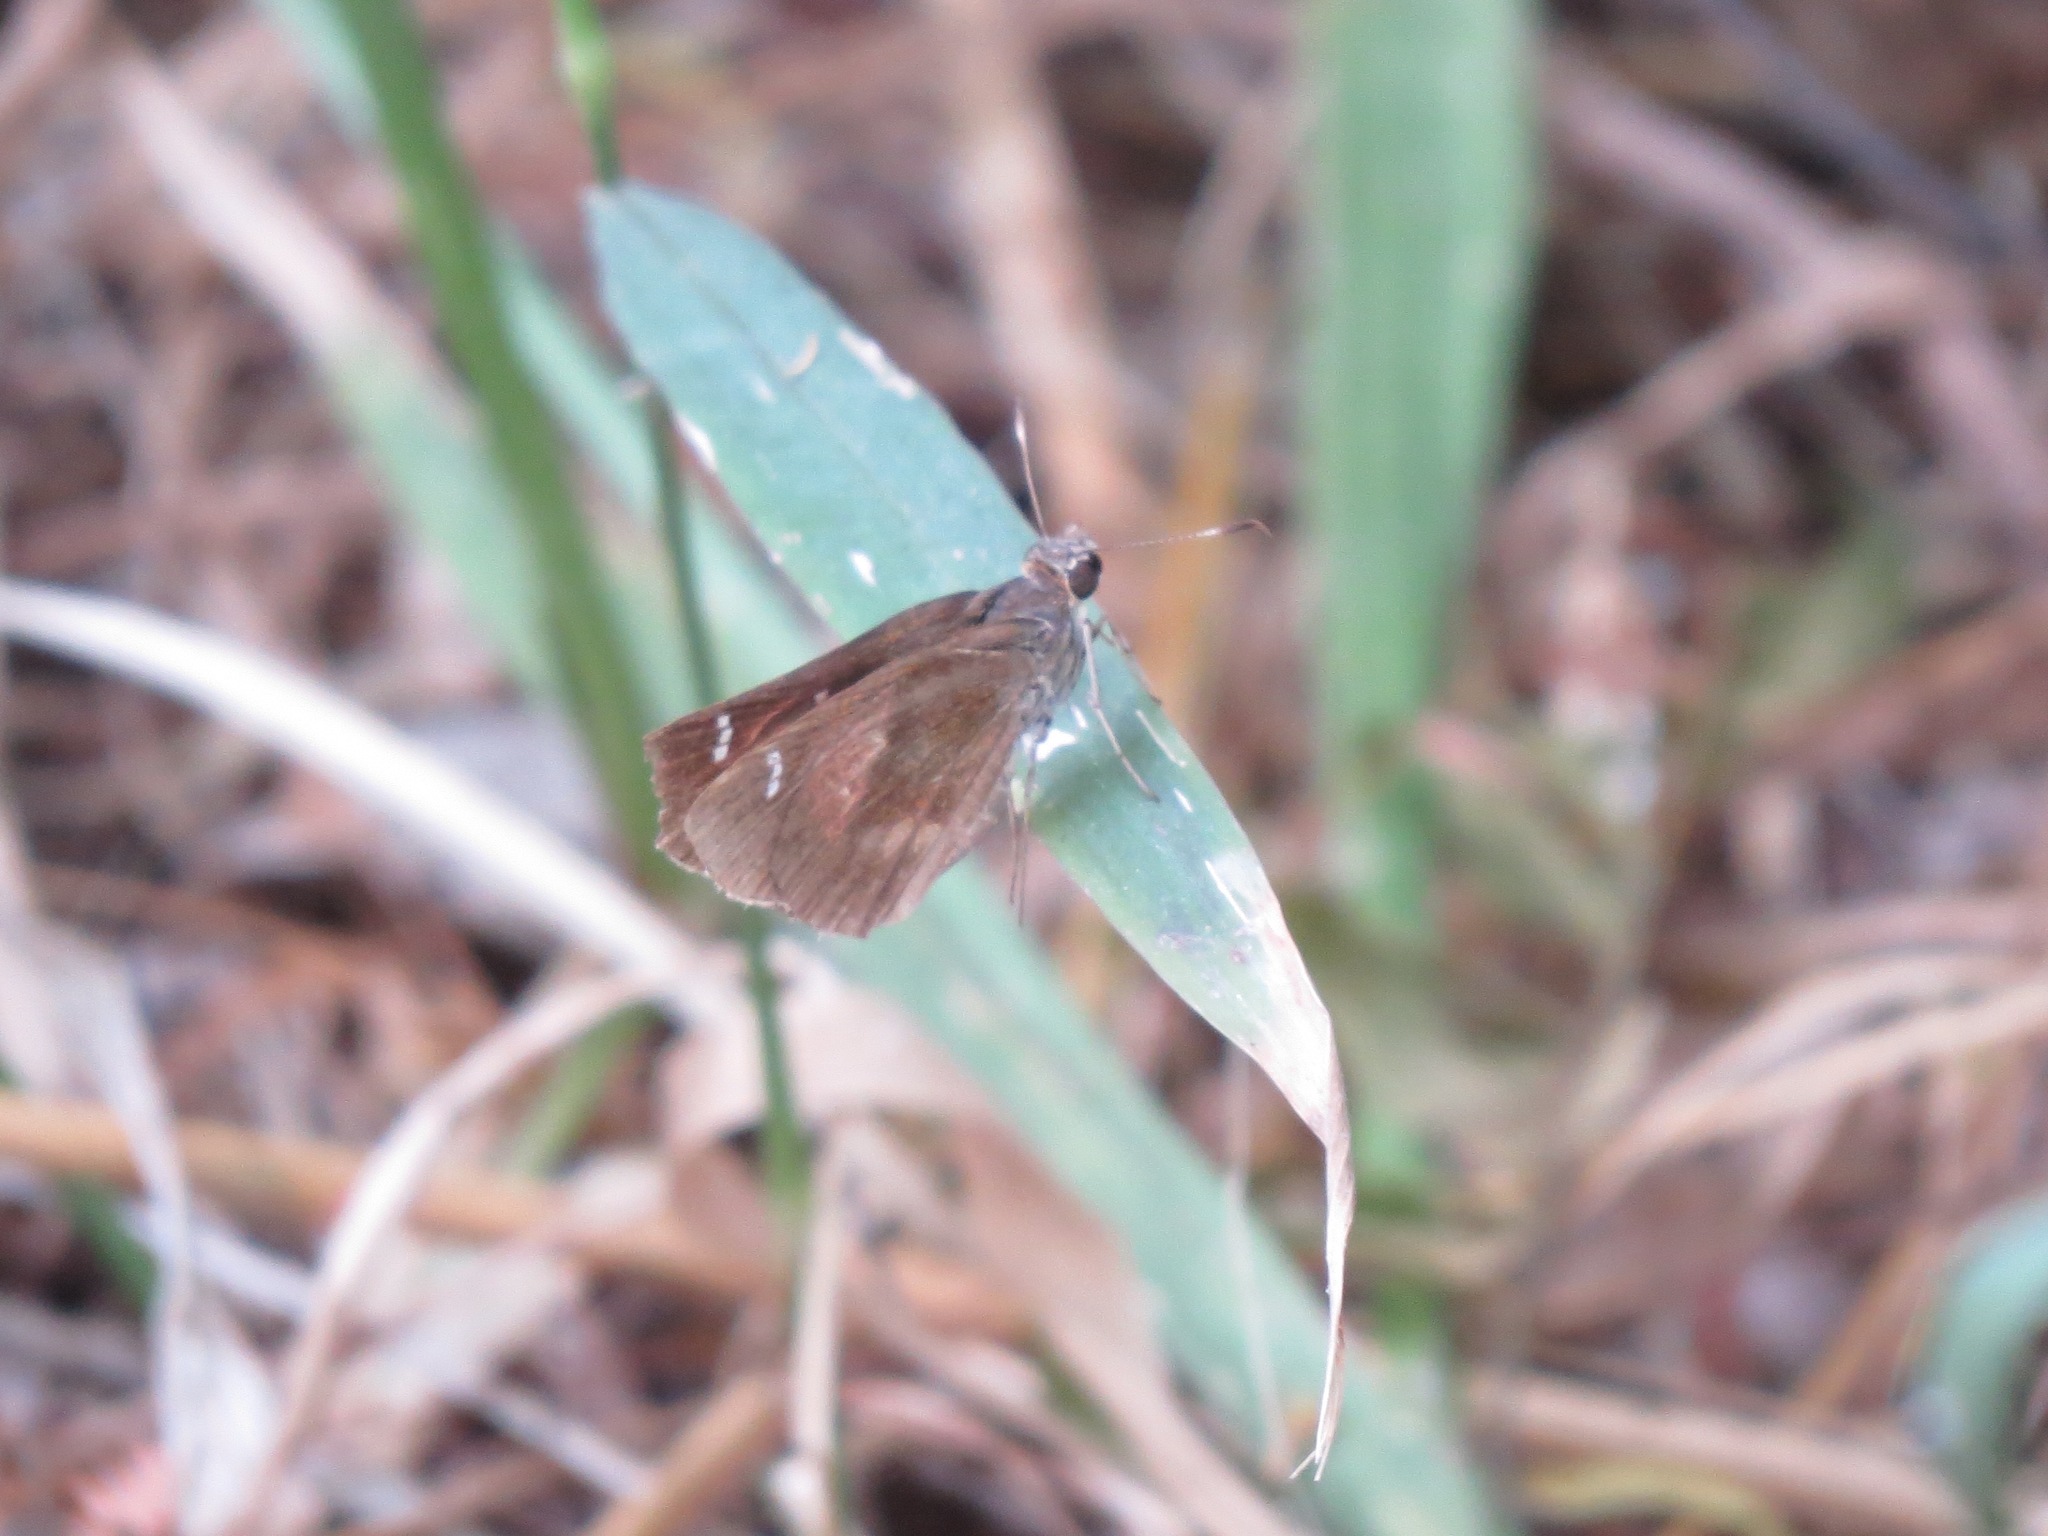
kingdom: Animalia
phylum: Arthropoda
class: Insecta
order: Lepidoptera
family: Hesperiidae
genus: Lerema
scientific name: Lerema accius
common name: Clouded skipper
